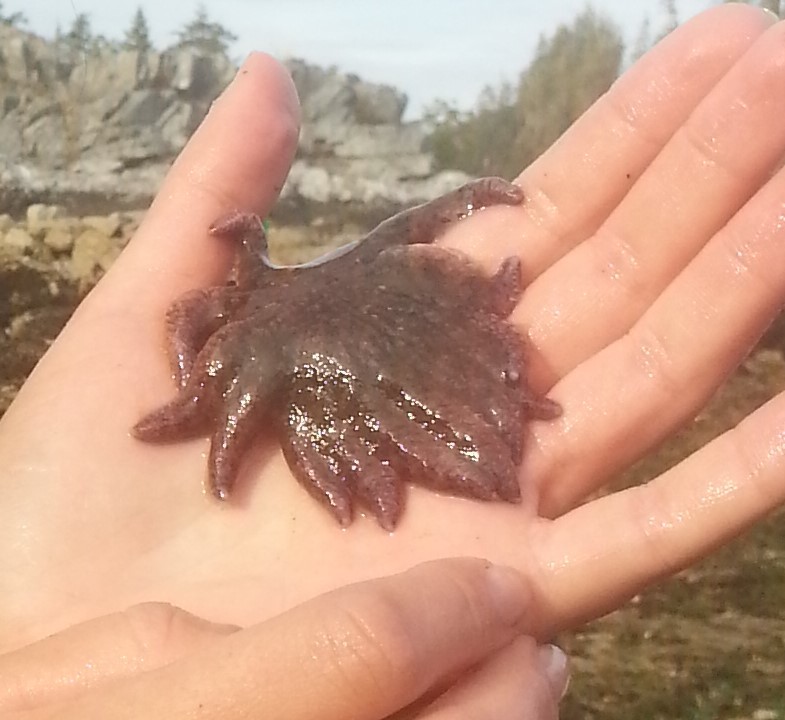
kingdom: Animalia
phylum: Echinodermata
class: Asteroidea
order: Forcipulatida
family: Asteriidae
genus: Pycnopodia
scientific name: Pycnopodia helianthoides
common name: Rag mop
